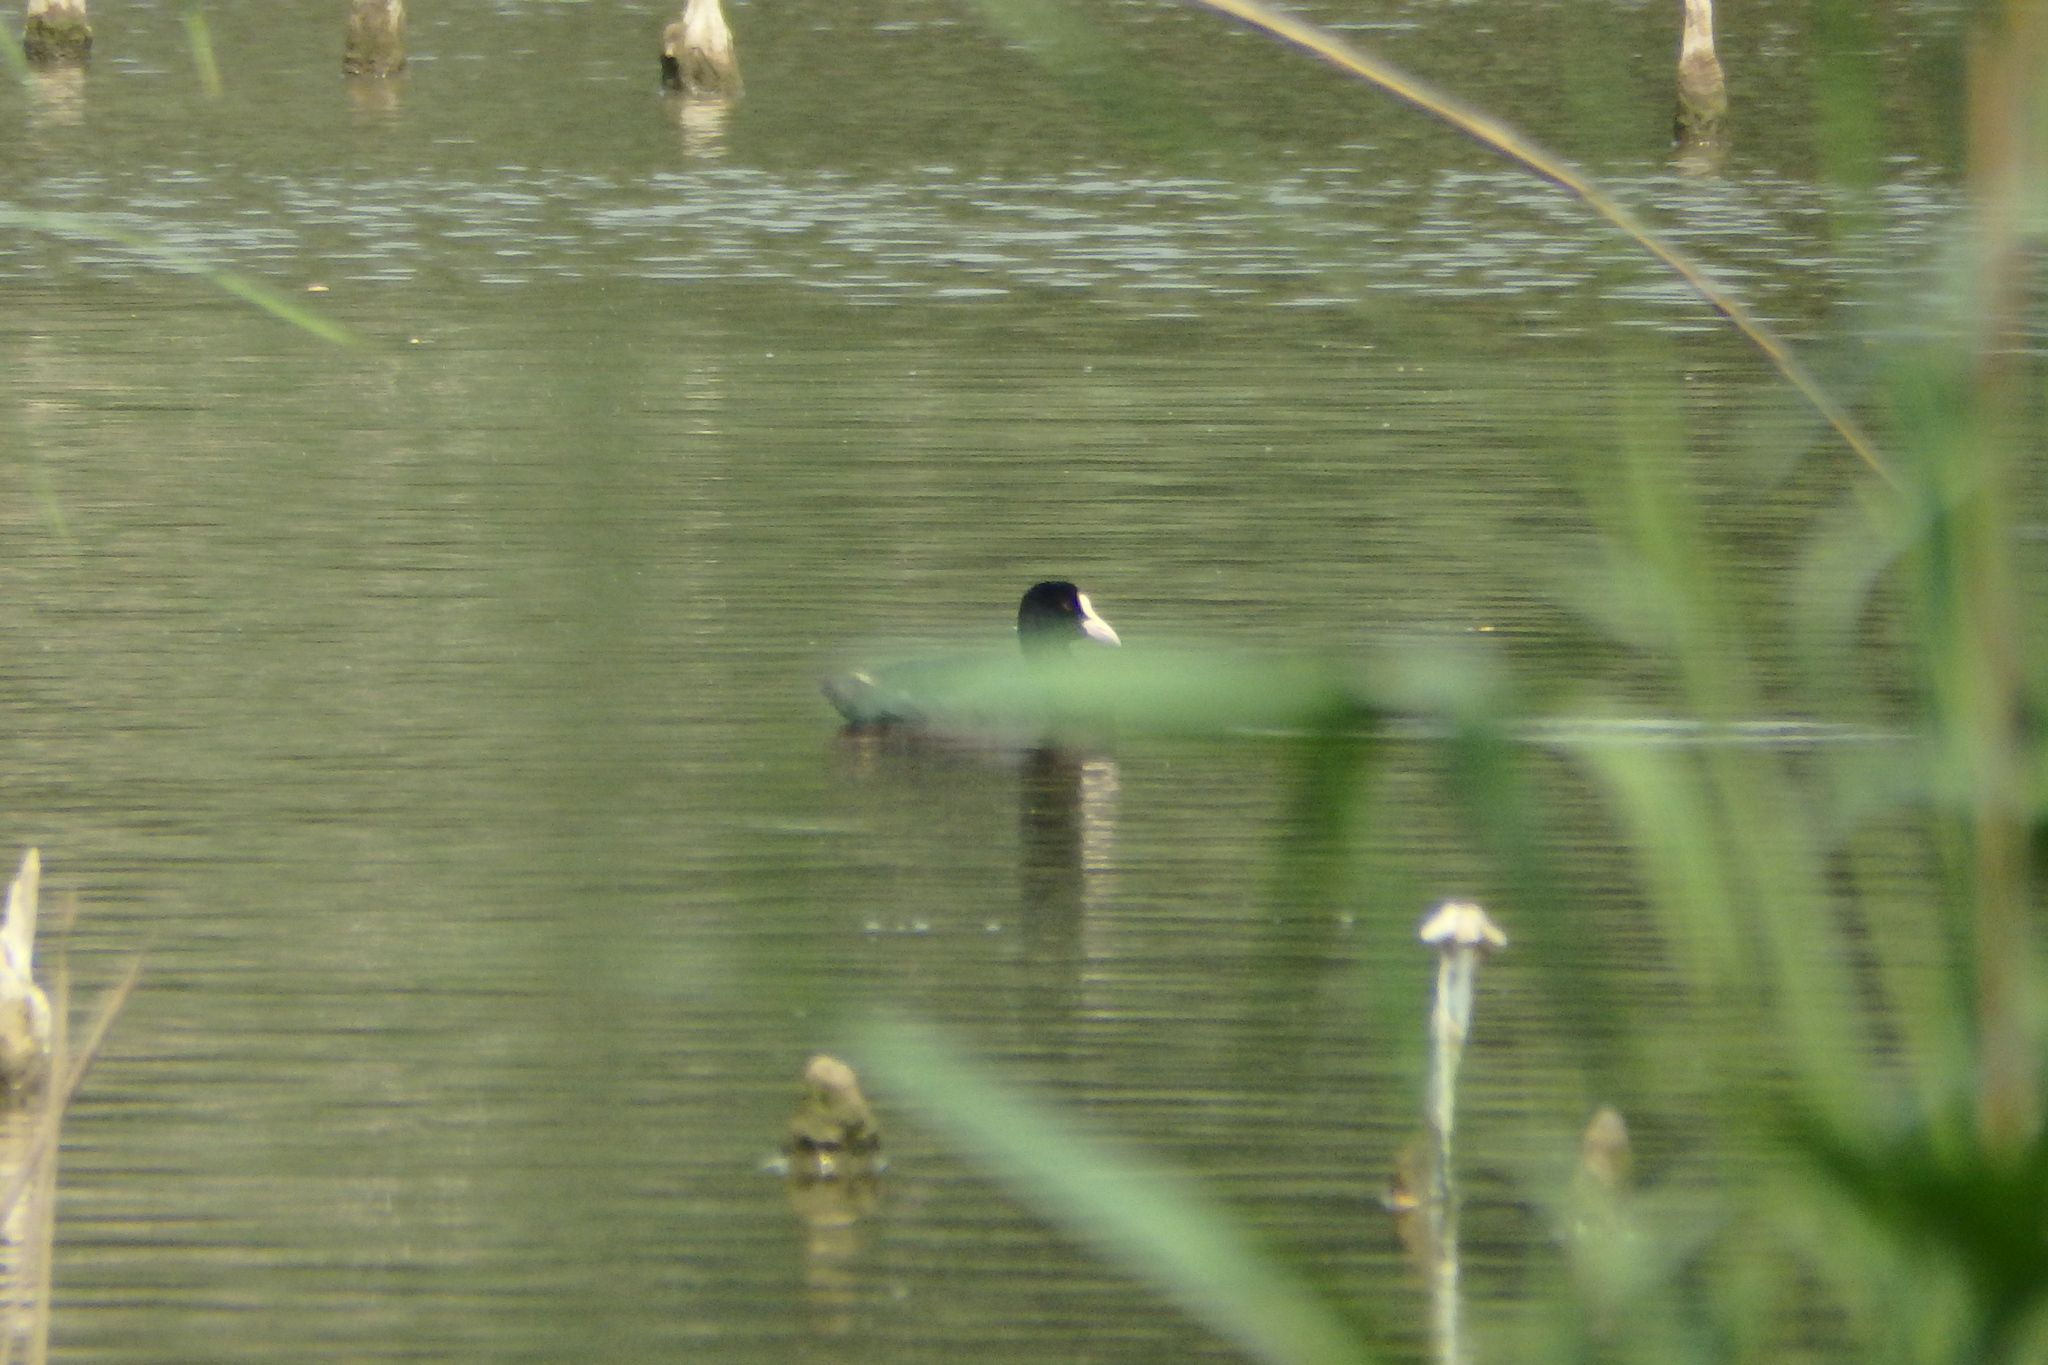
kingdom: Animalia
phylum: Chordata
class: Aves
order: Gruiformes
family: Rallidae
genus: Fulica
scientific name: Fulica atra
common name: Eurasian coot
